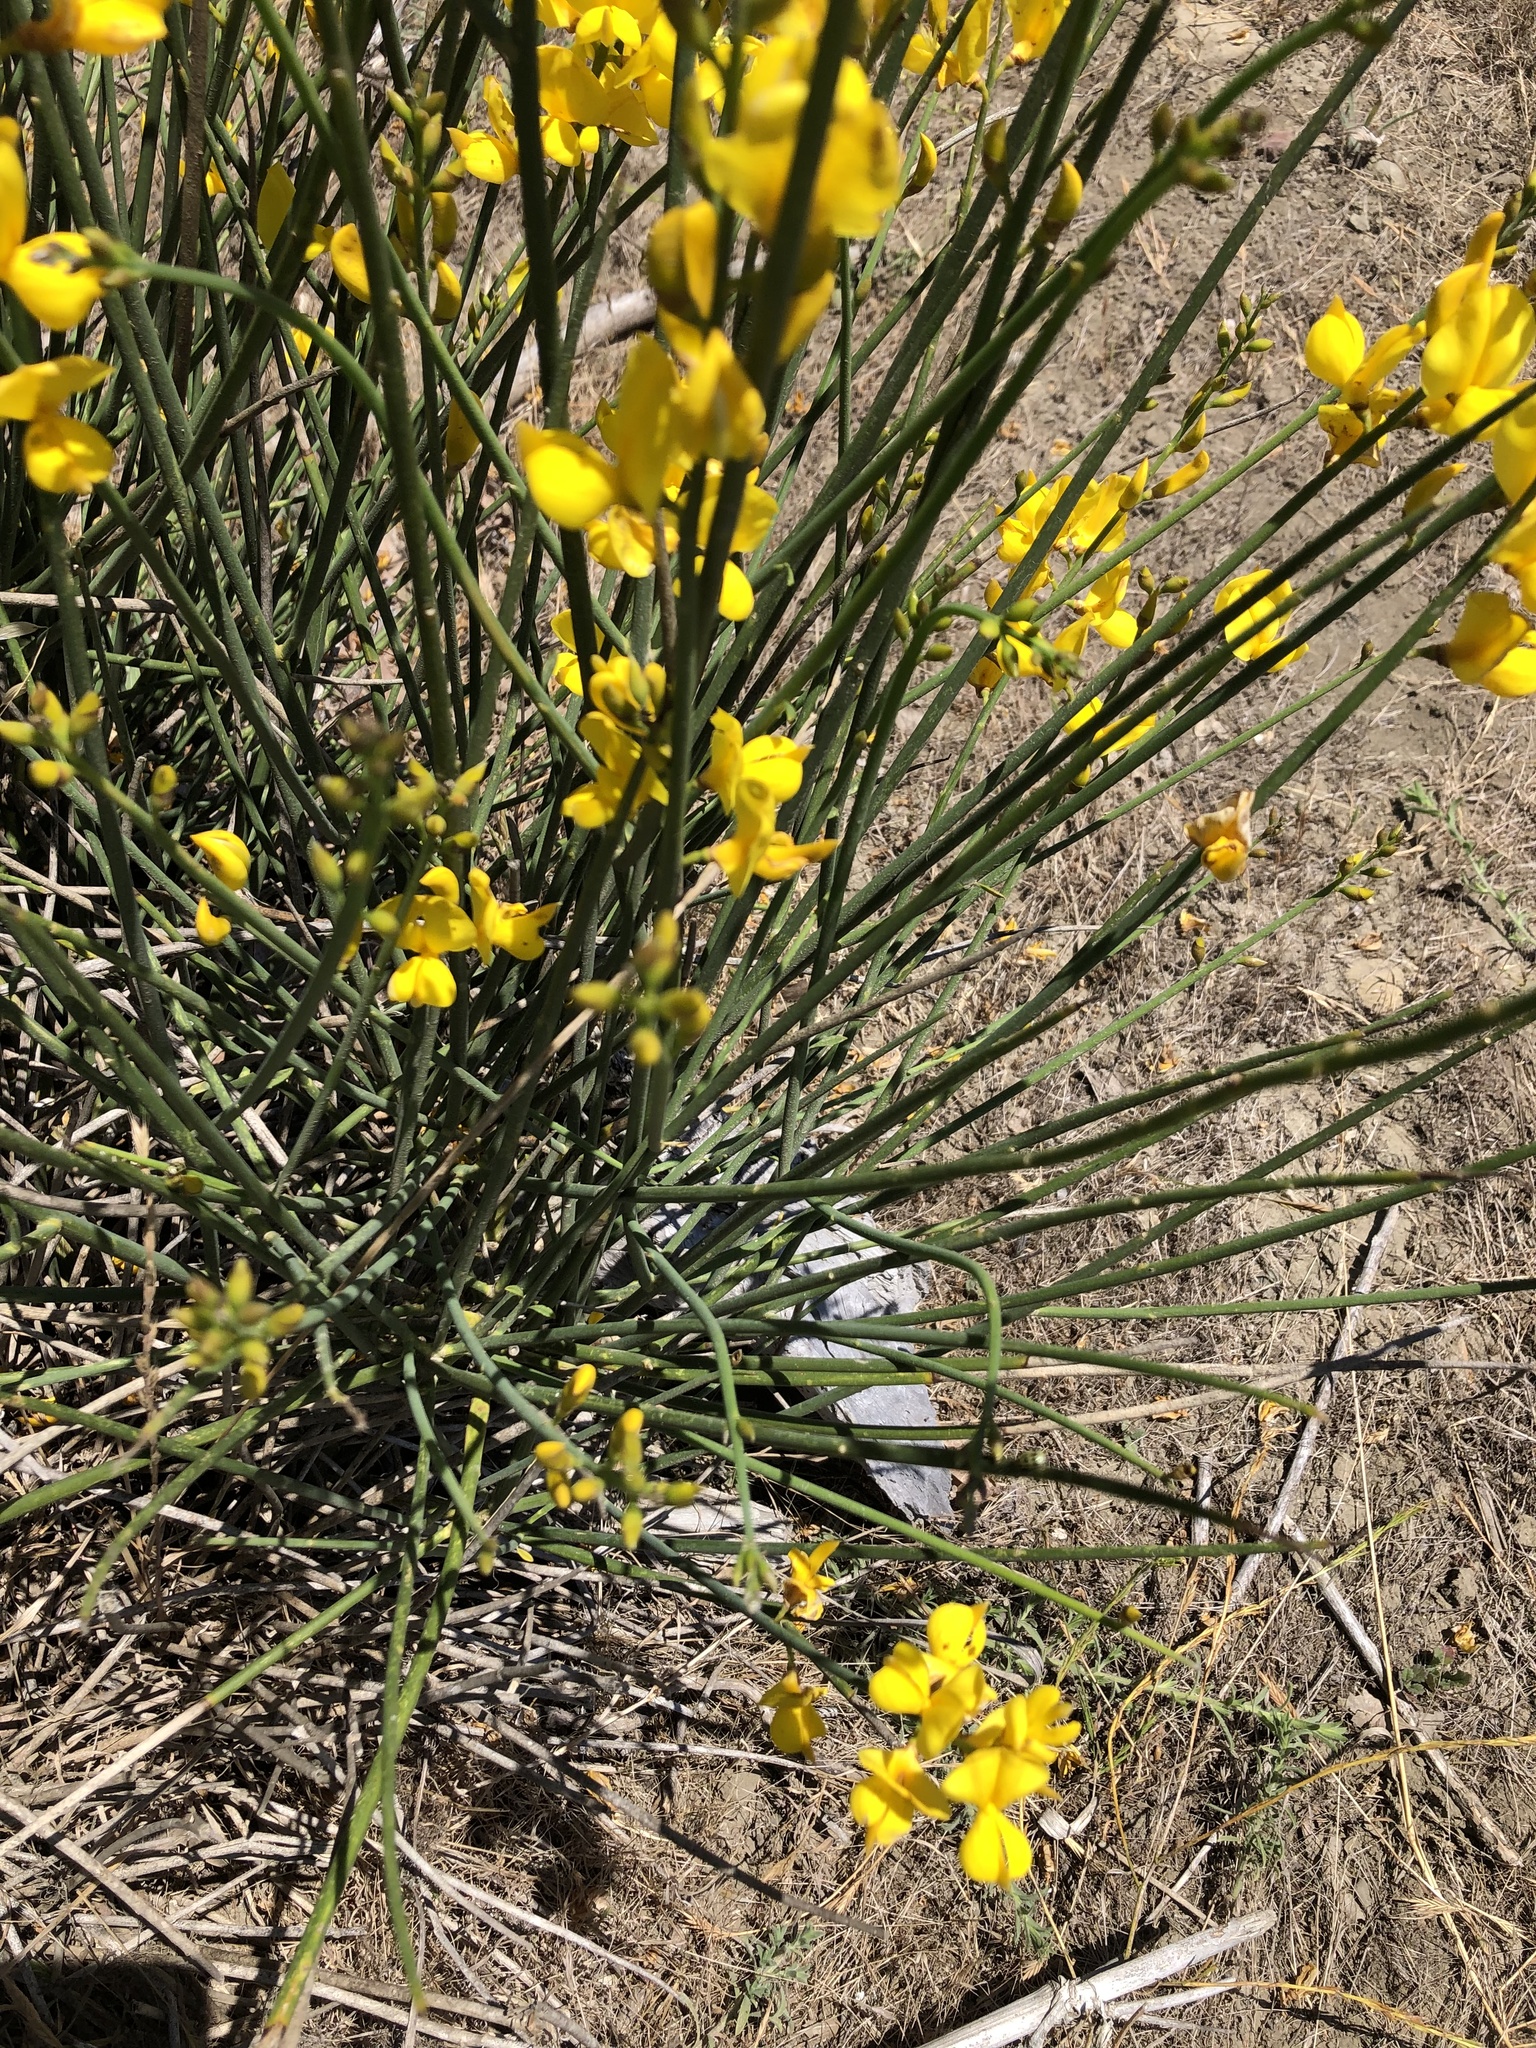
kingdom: Plantae
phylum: Tracheophyta
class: Magnoliopsida
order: Fabales
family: Fabaceae
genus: Spartium
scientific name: Spartium junceum
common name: Spanish broom
